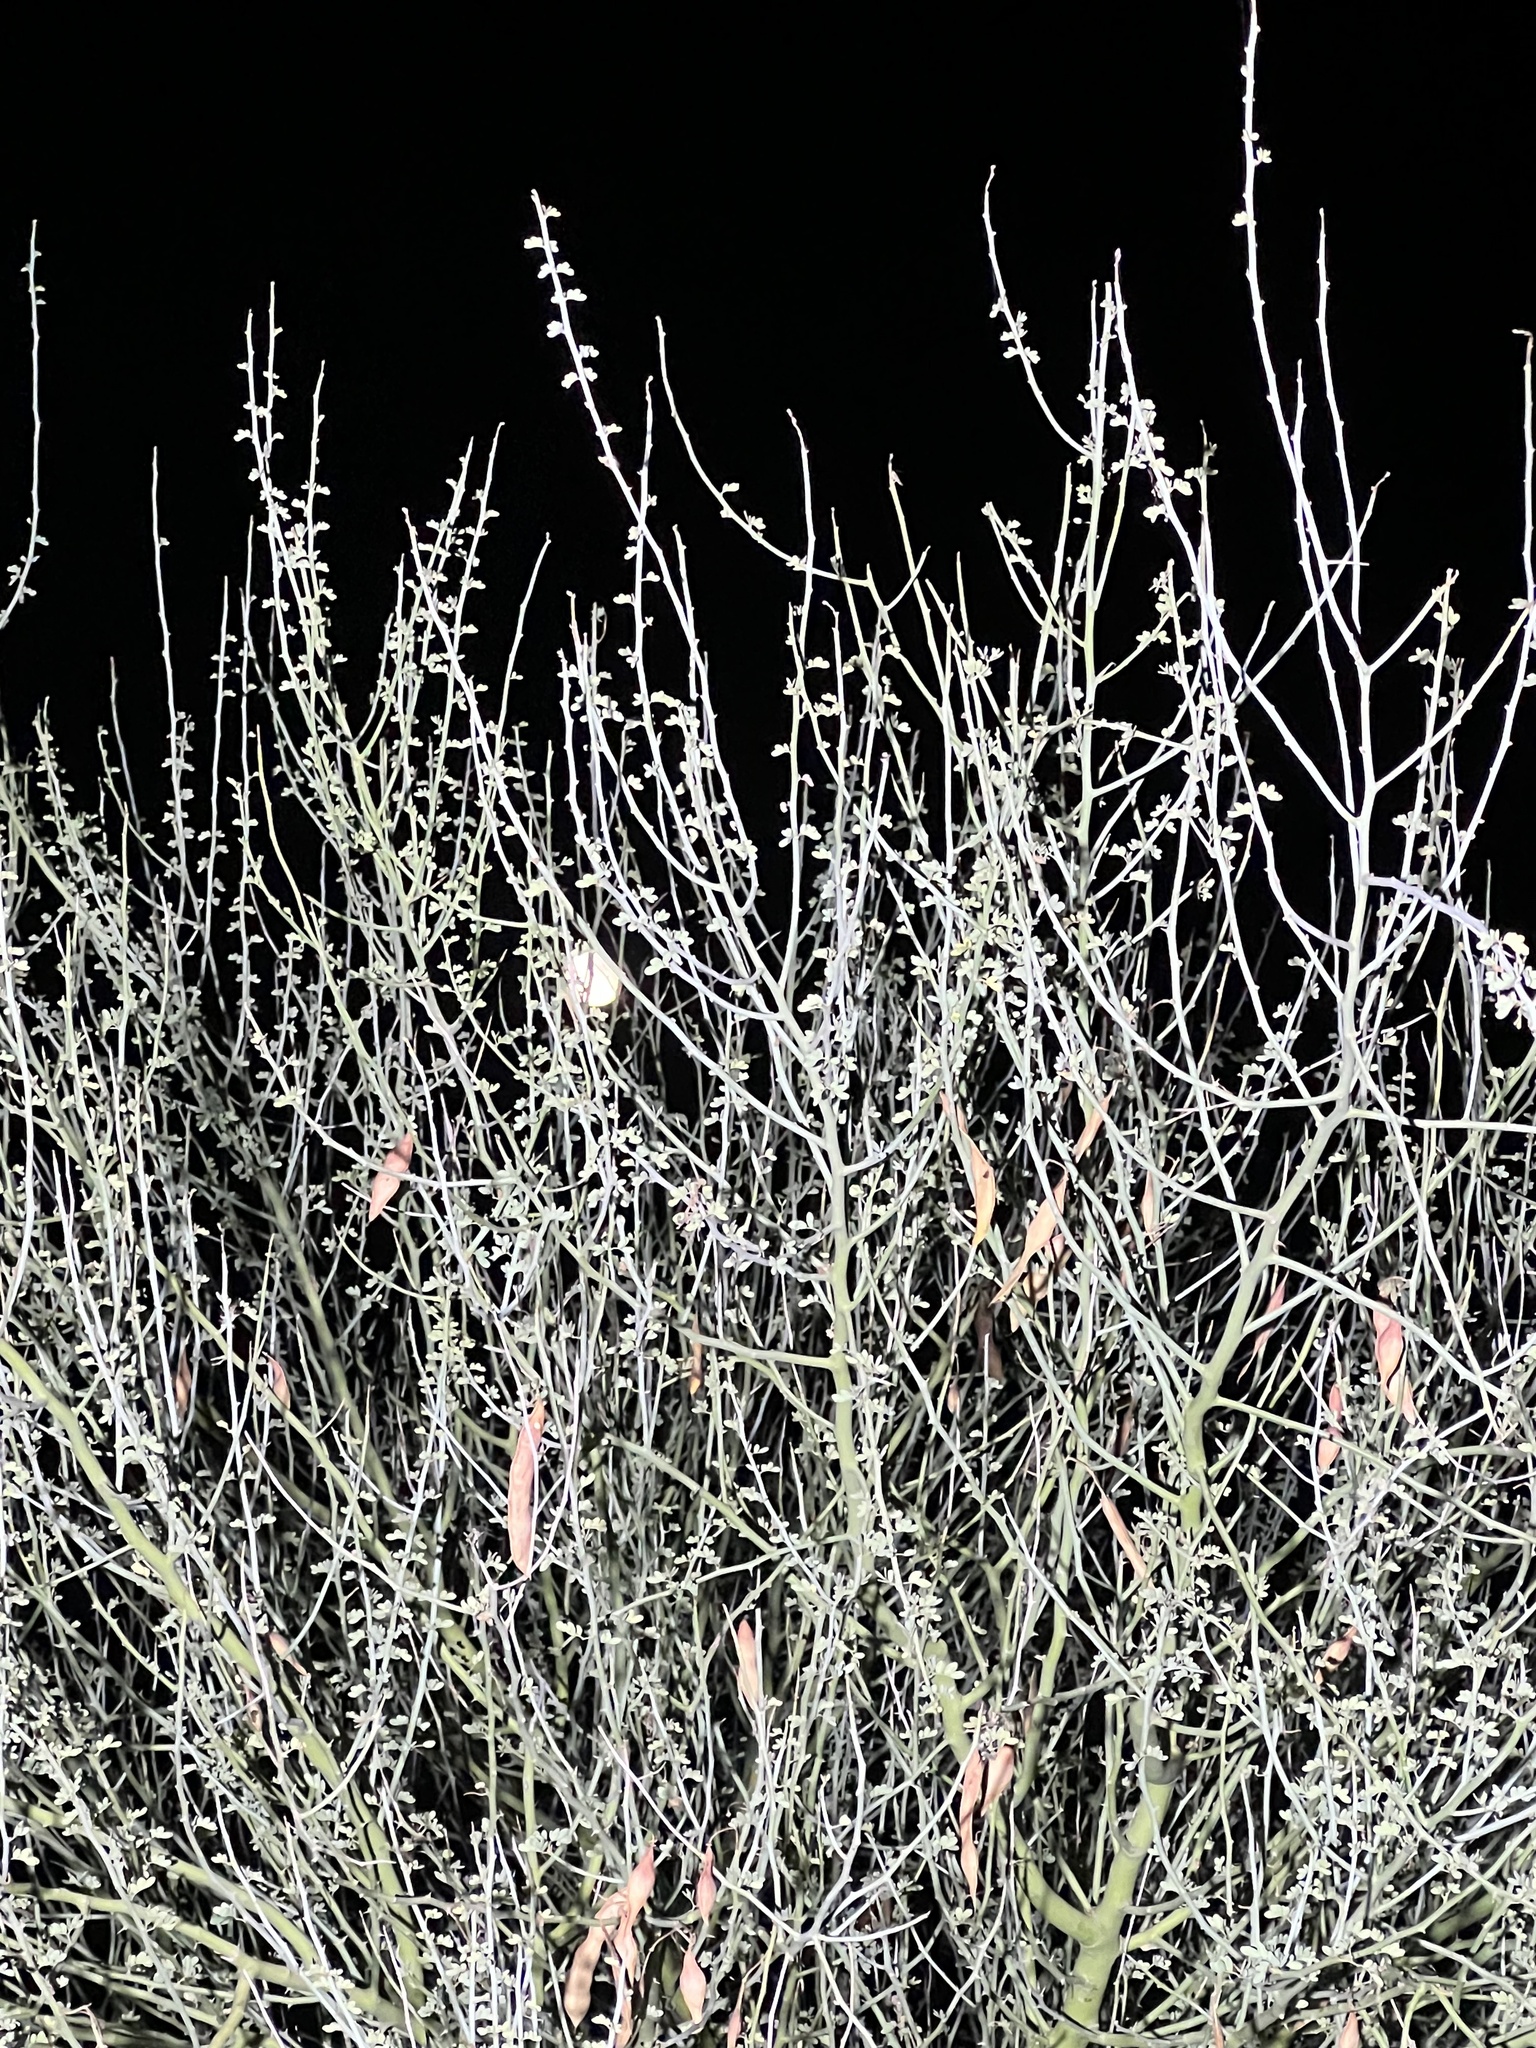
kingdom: Plantae
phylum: Tracheophyta
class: Magnoliopsida
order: Fabales
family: Fabaceae
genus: Parkinsonia
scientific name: Parkinsonia florida
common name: Blue paloverde
